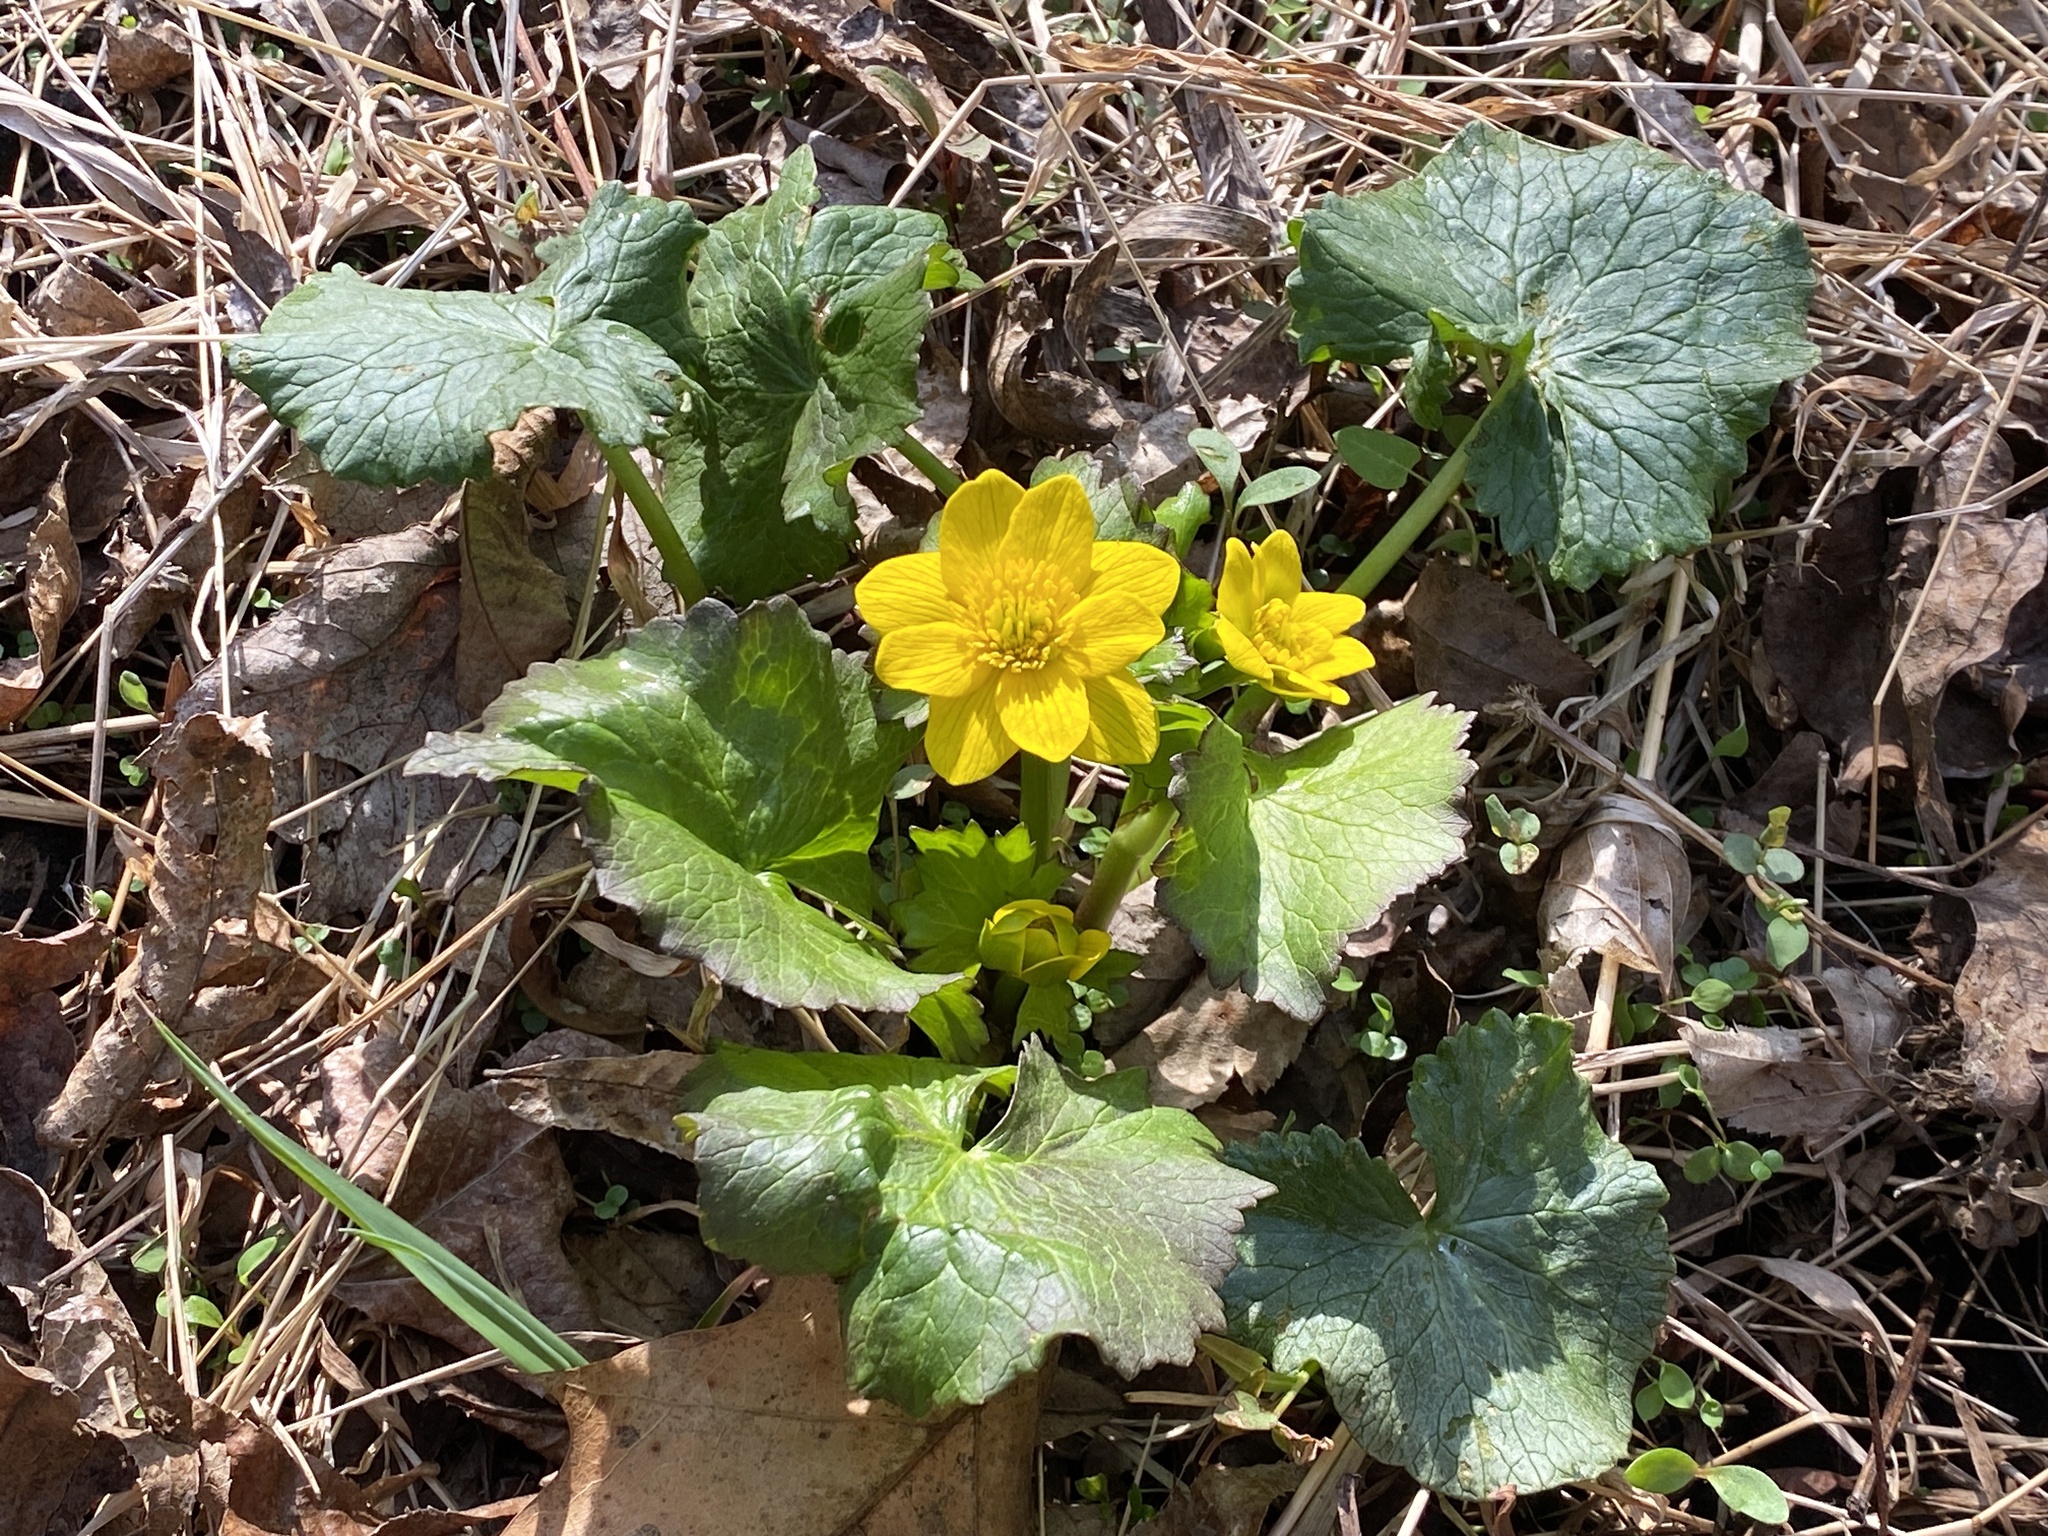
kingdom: Plantae
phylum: Tracheophyta
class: Magnoliopsida
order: Ranunculales
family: Ranunculaceae
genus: Caltha
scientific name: Caltha palustris
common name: Marsh marigold
